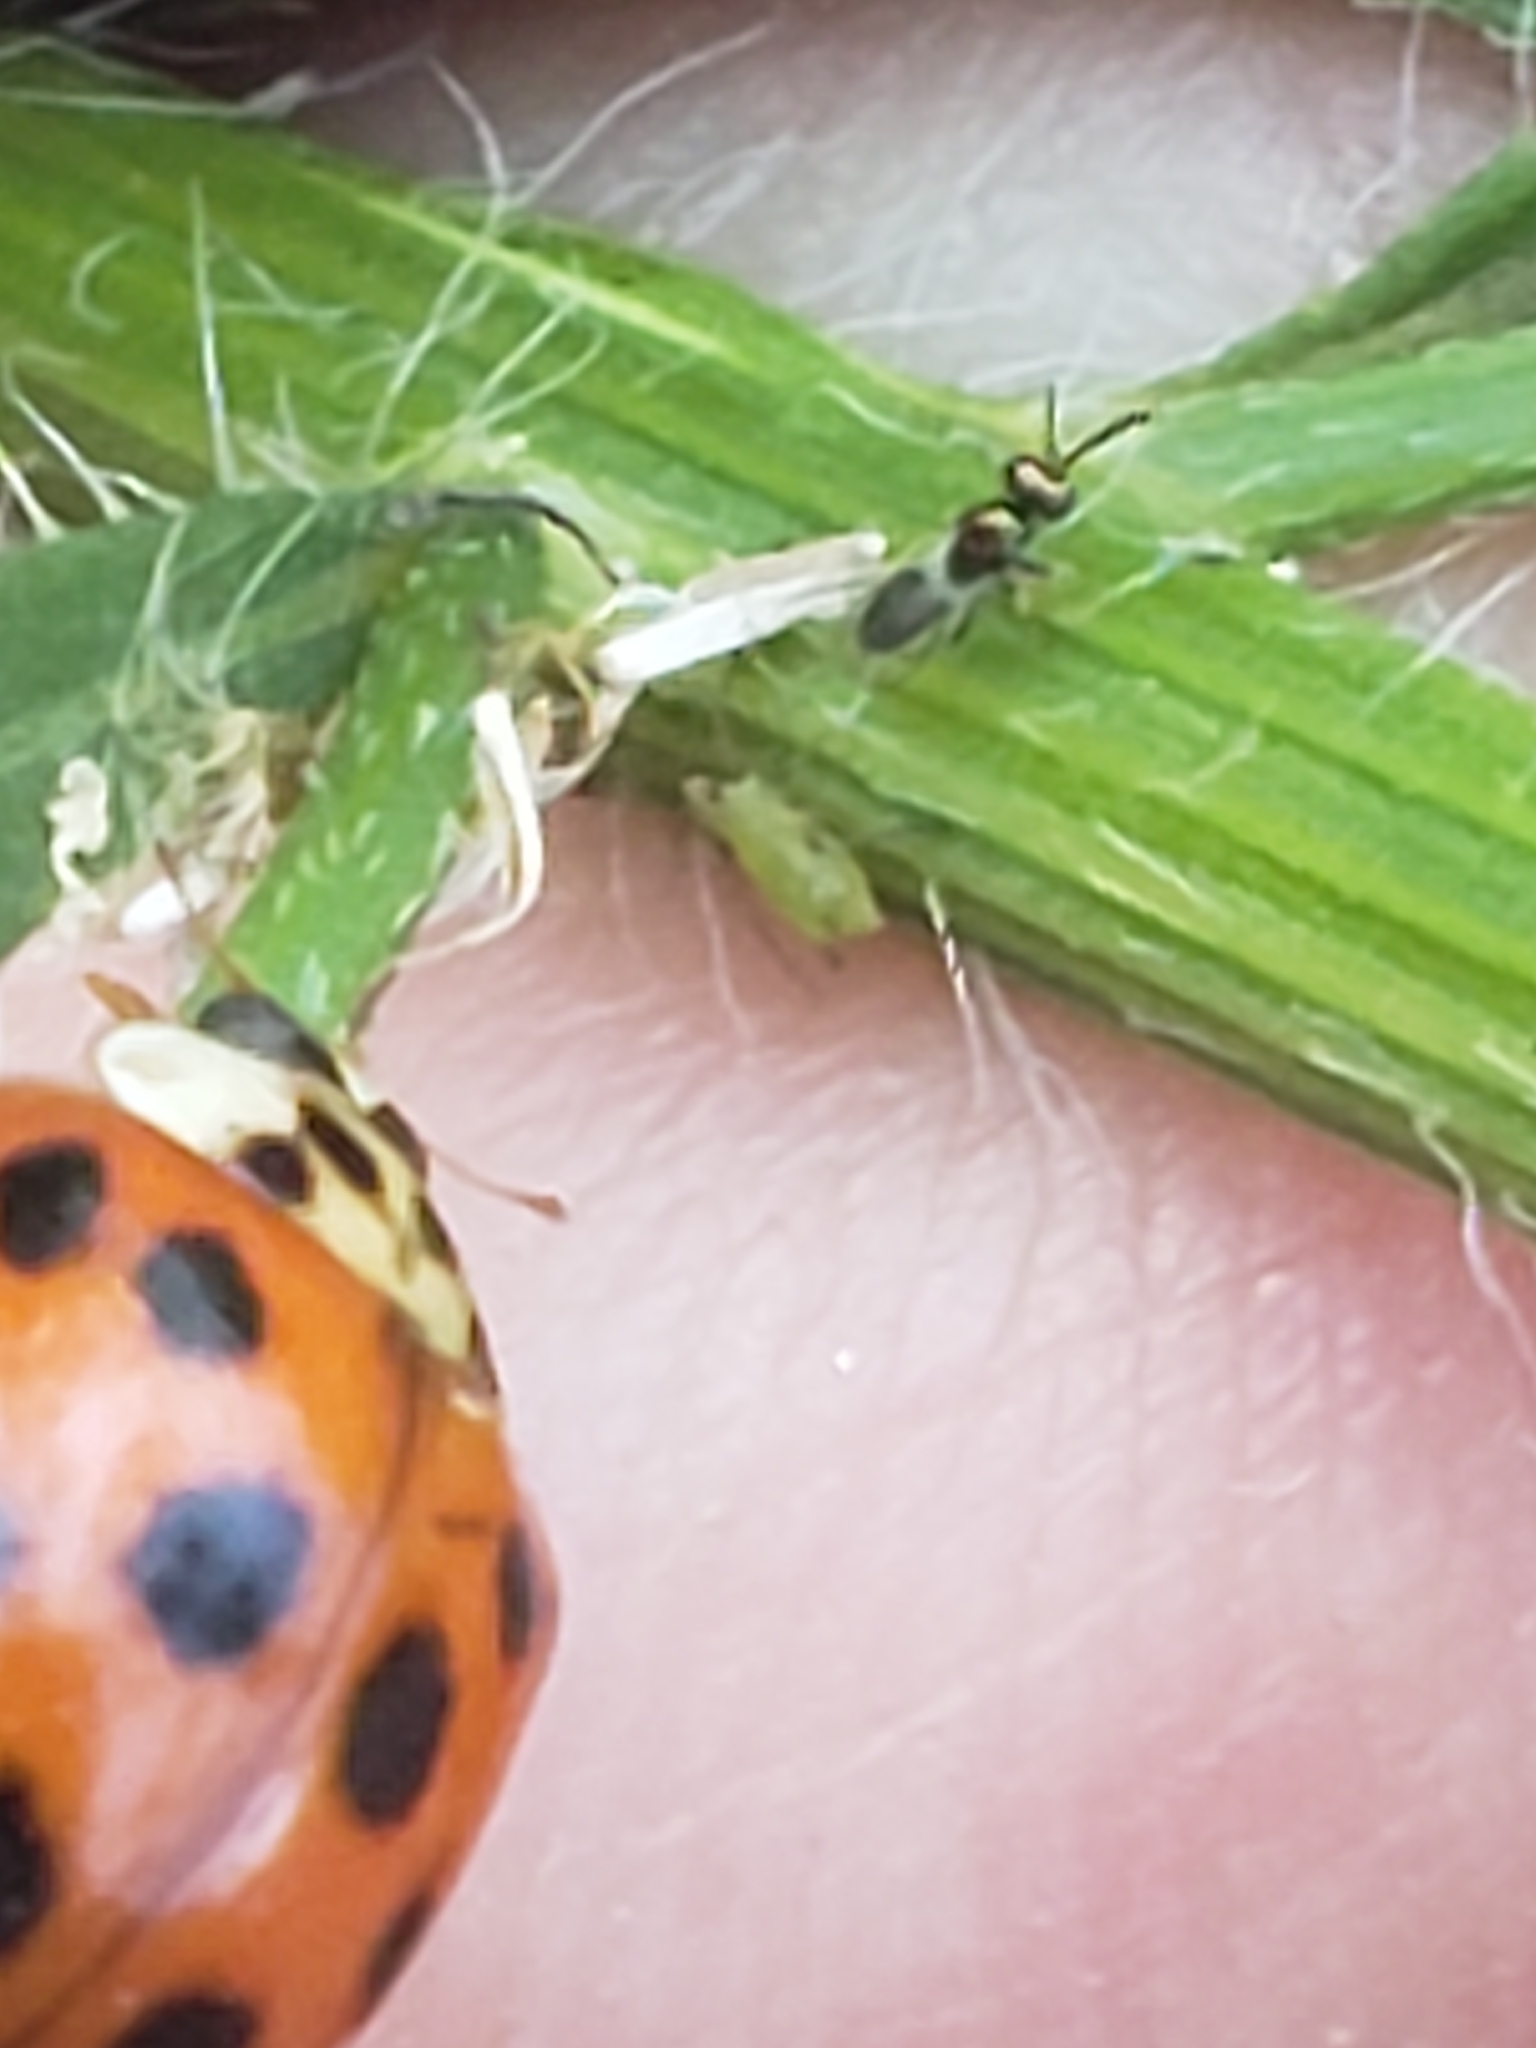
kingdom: Animalia
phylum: Arthropoda
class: Insecta
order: Coleoptera
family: Coccinellidae
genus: Harmonia
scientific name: Harmonia axyridis
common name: Harlequin ladybird
